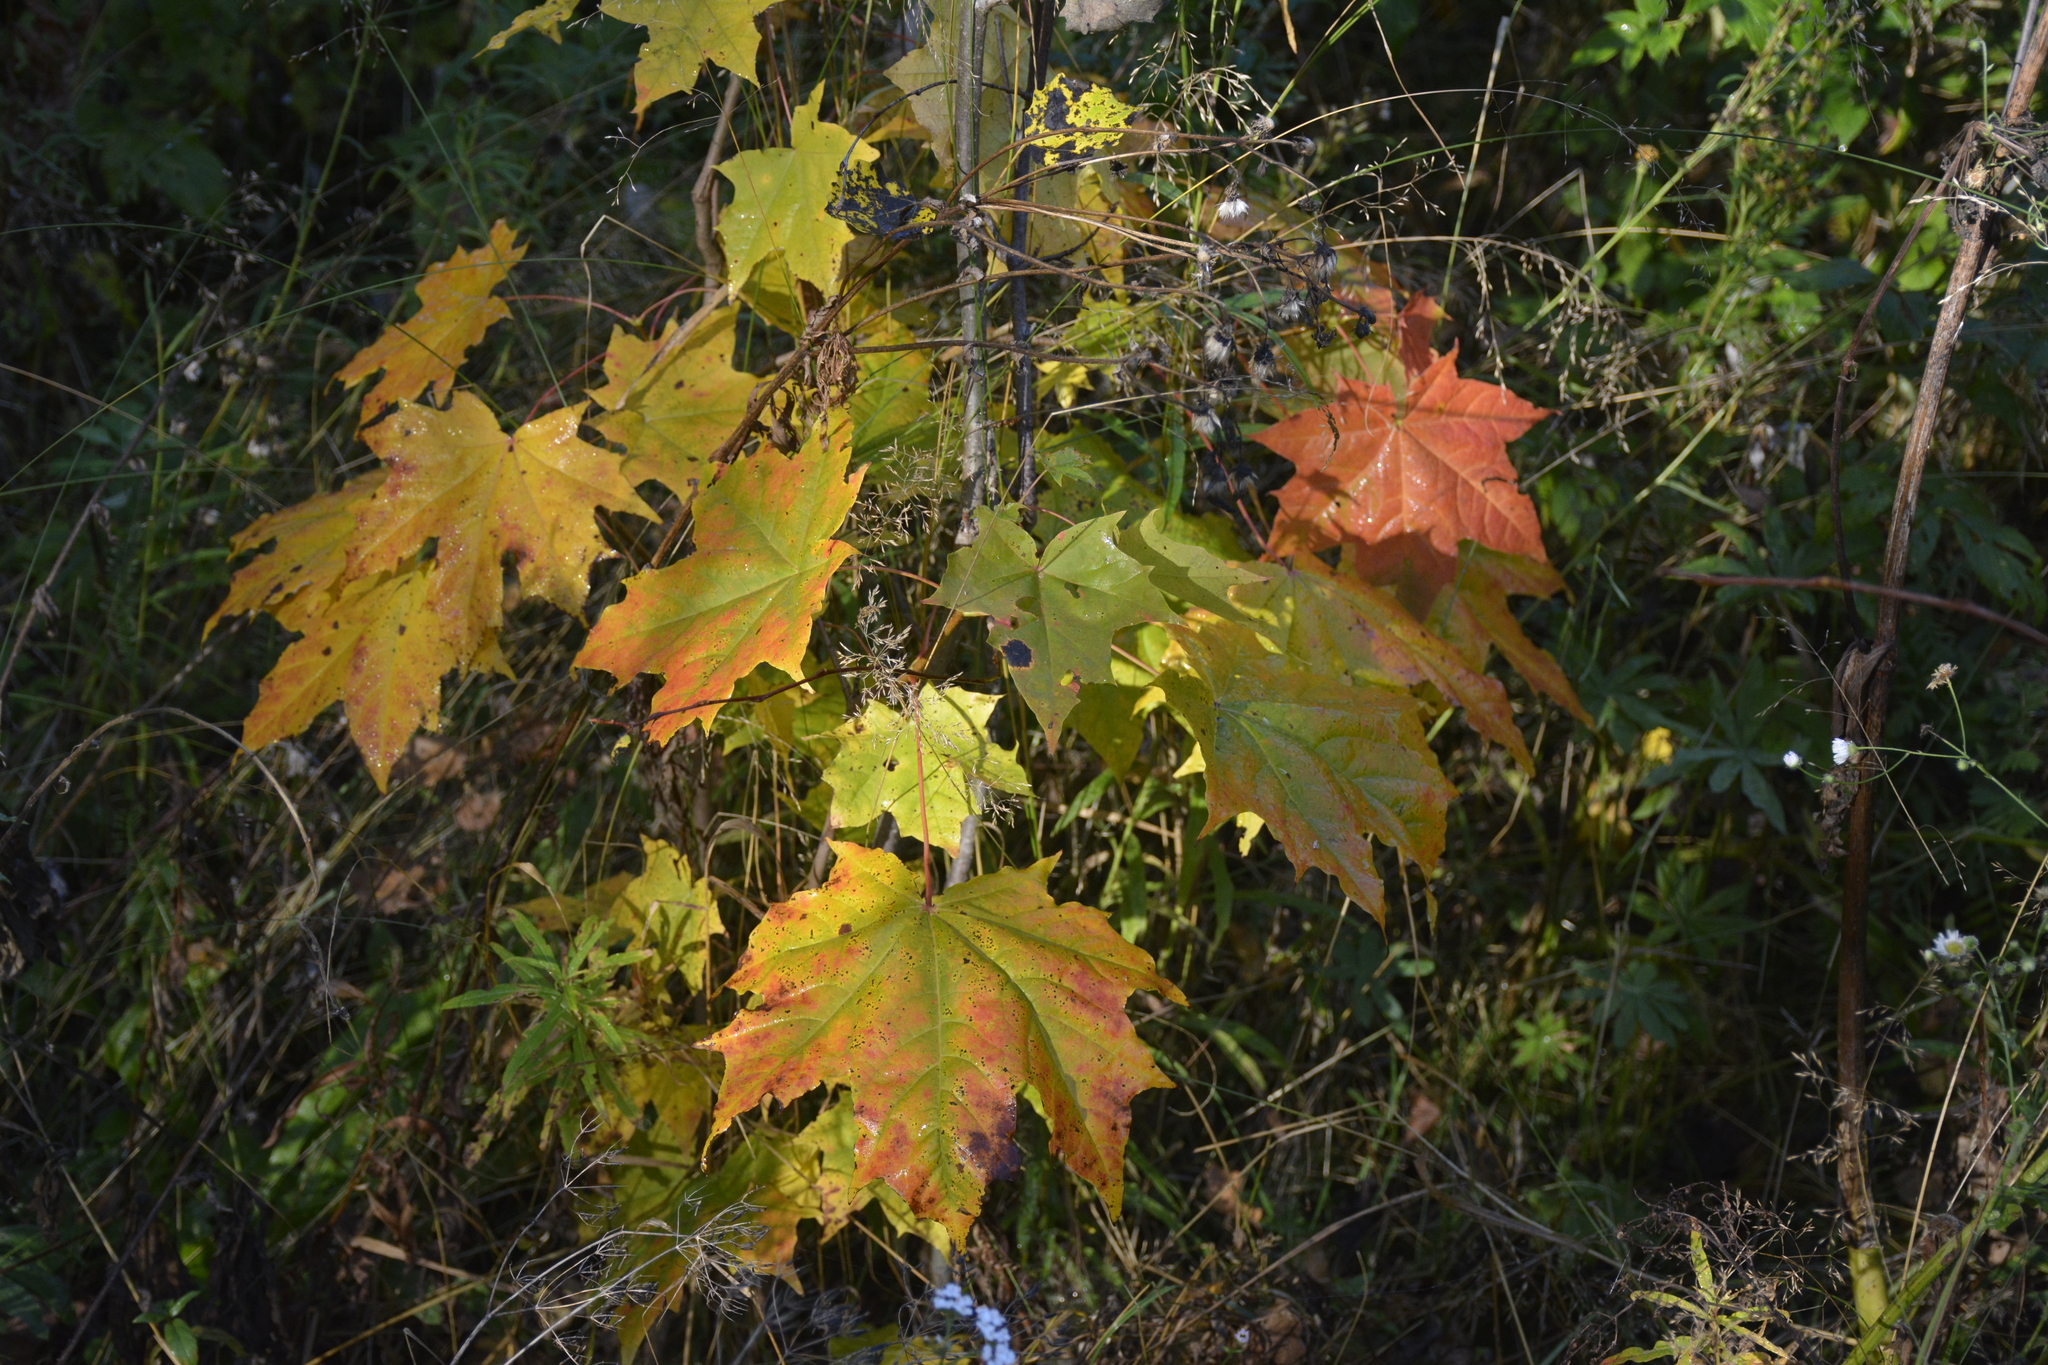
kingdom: Plantae
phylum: Tracheophyta
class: Magnoliopsida
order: Sapindales
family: Sapindaceae
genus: Acer
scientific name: Acer platanoides
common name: Norway maple
